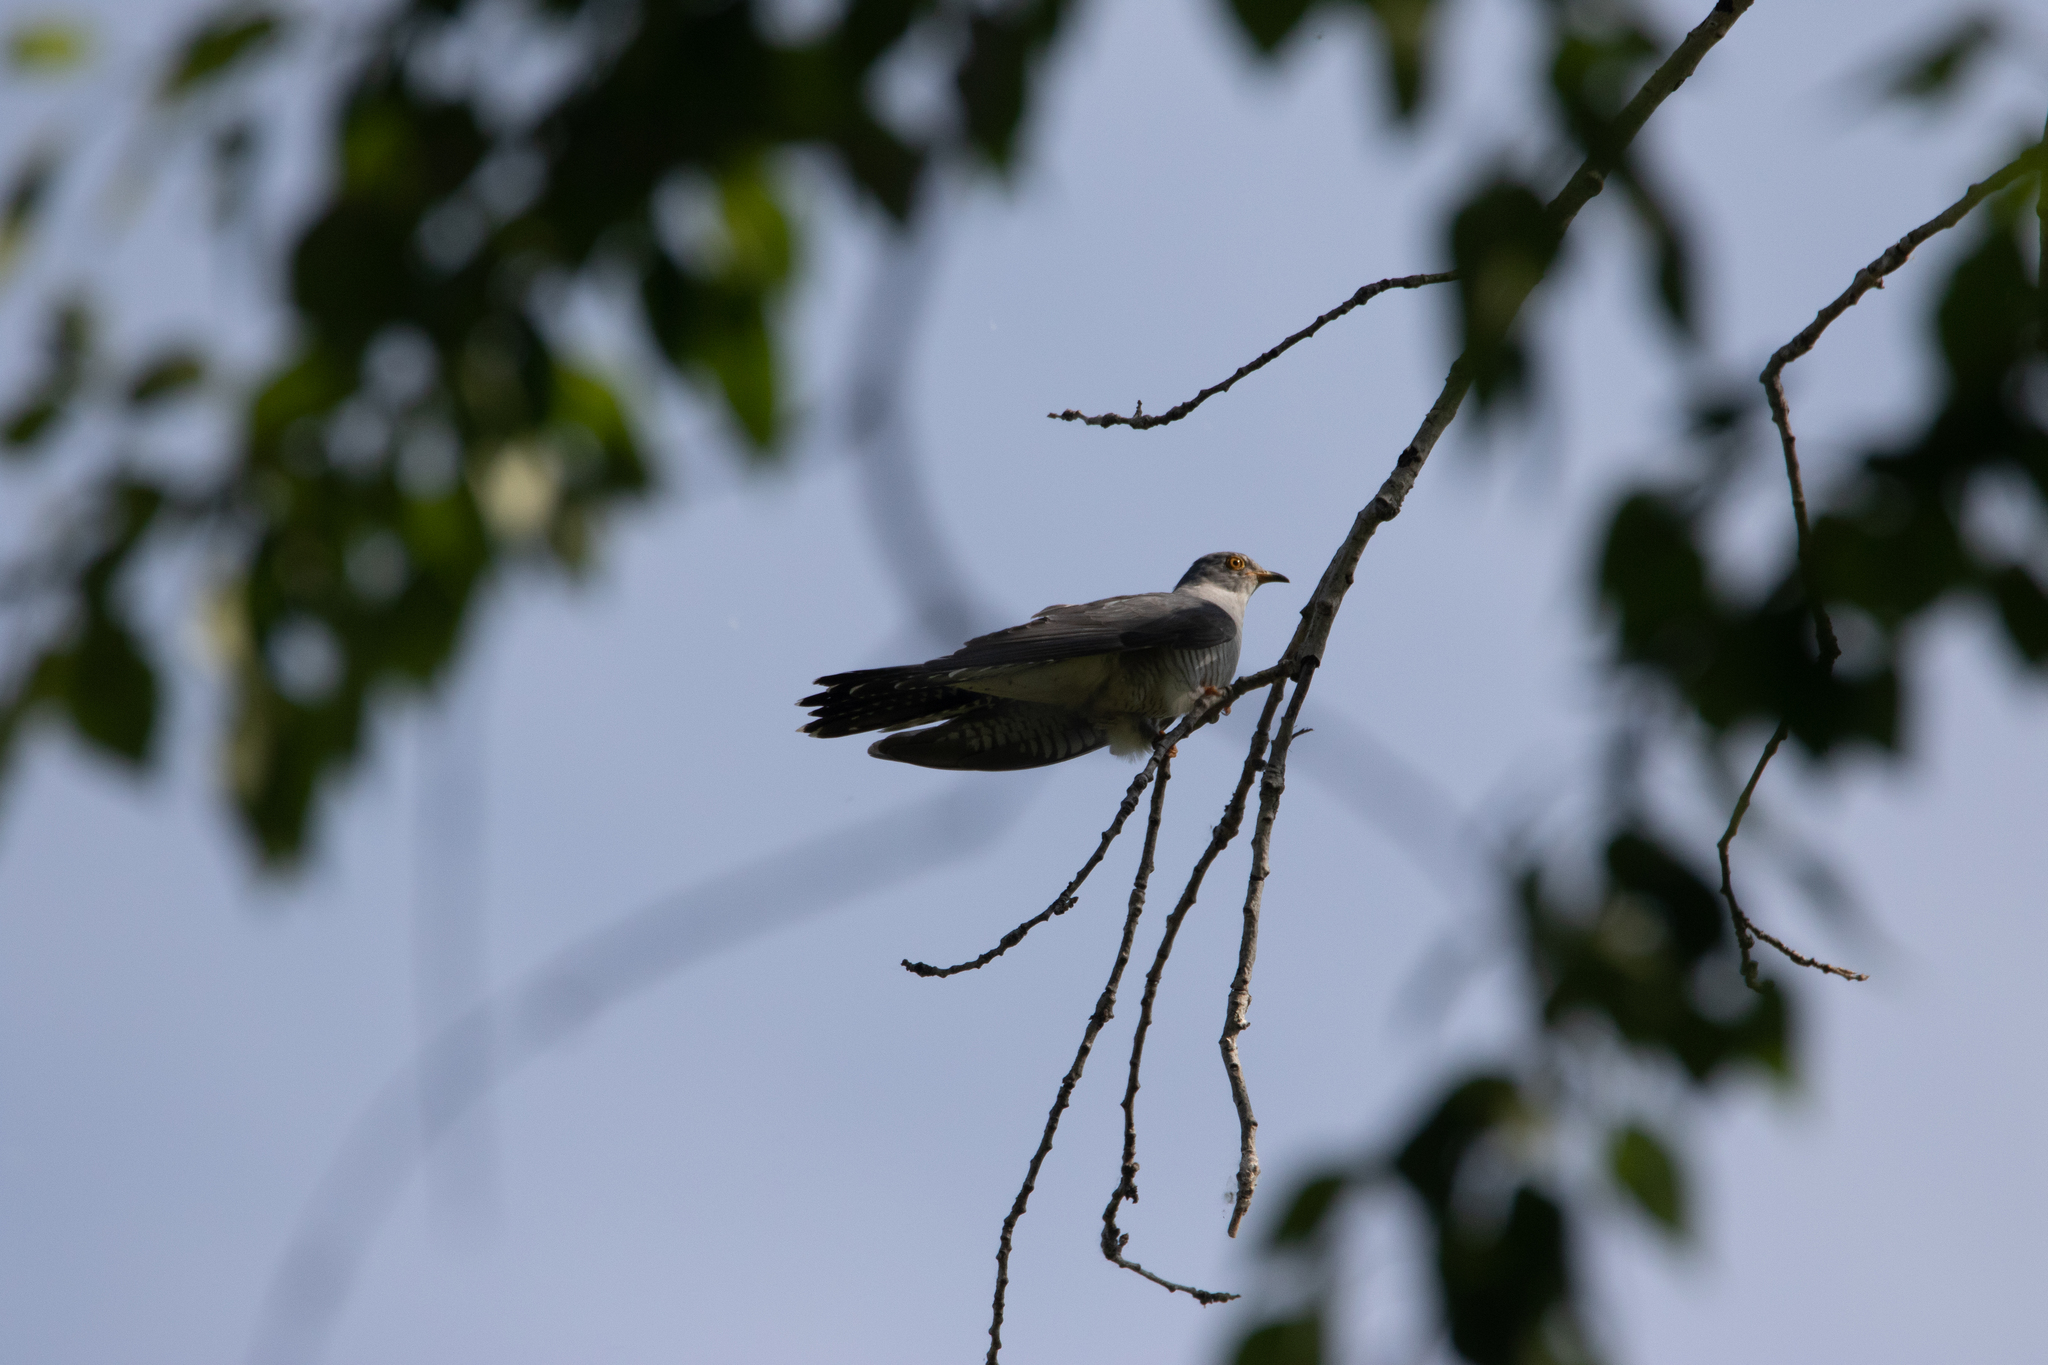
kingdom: Animalia
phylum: Chordata
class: Aves
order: Cuculiformes
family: Cuculidae
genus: Cuculus
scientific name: Cuculus canorus
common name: Common cuckoo
